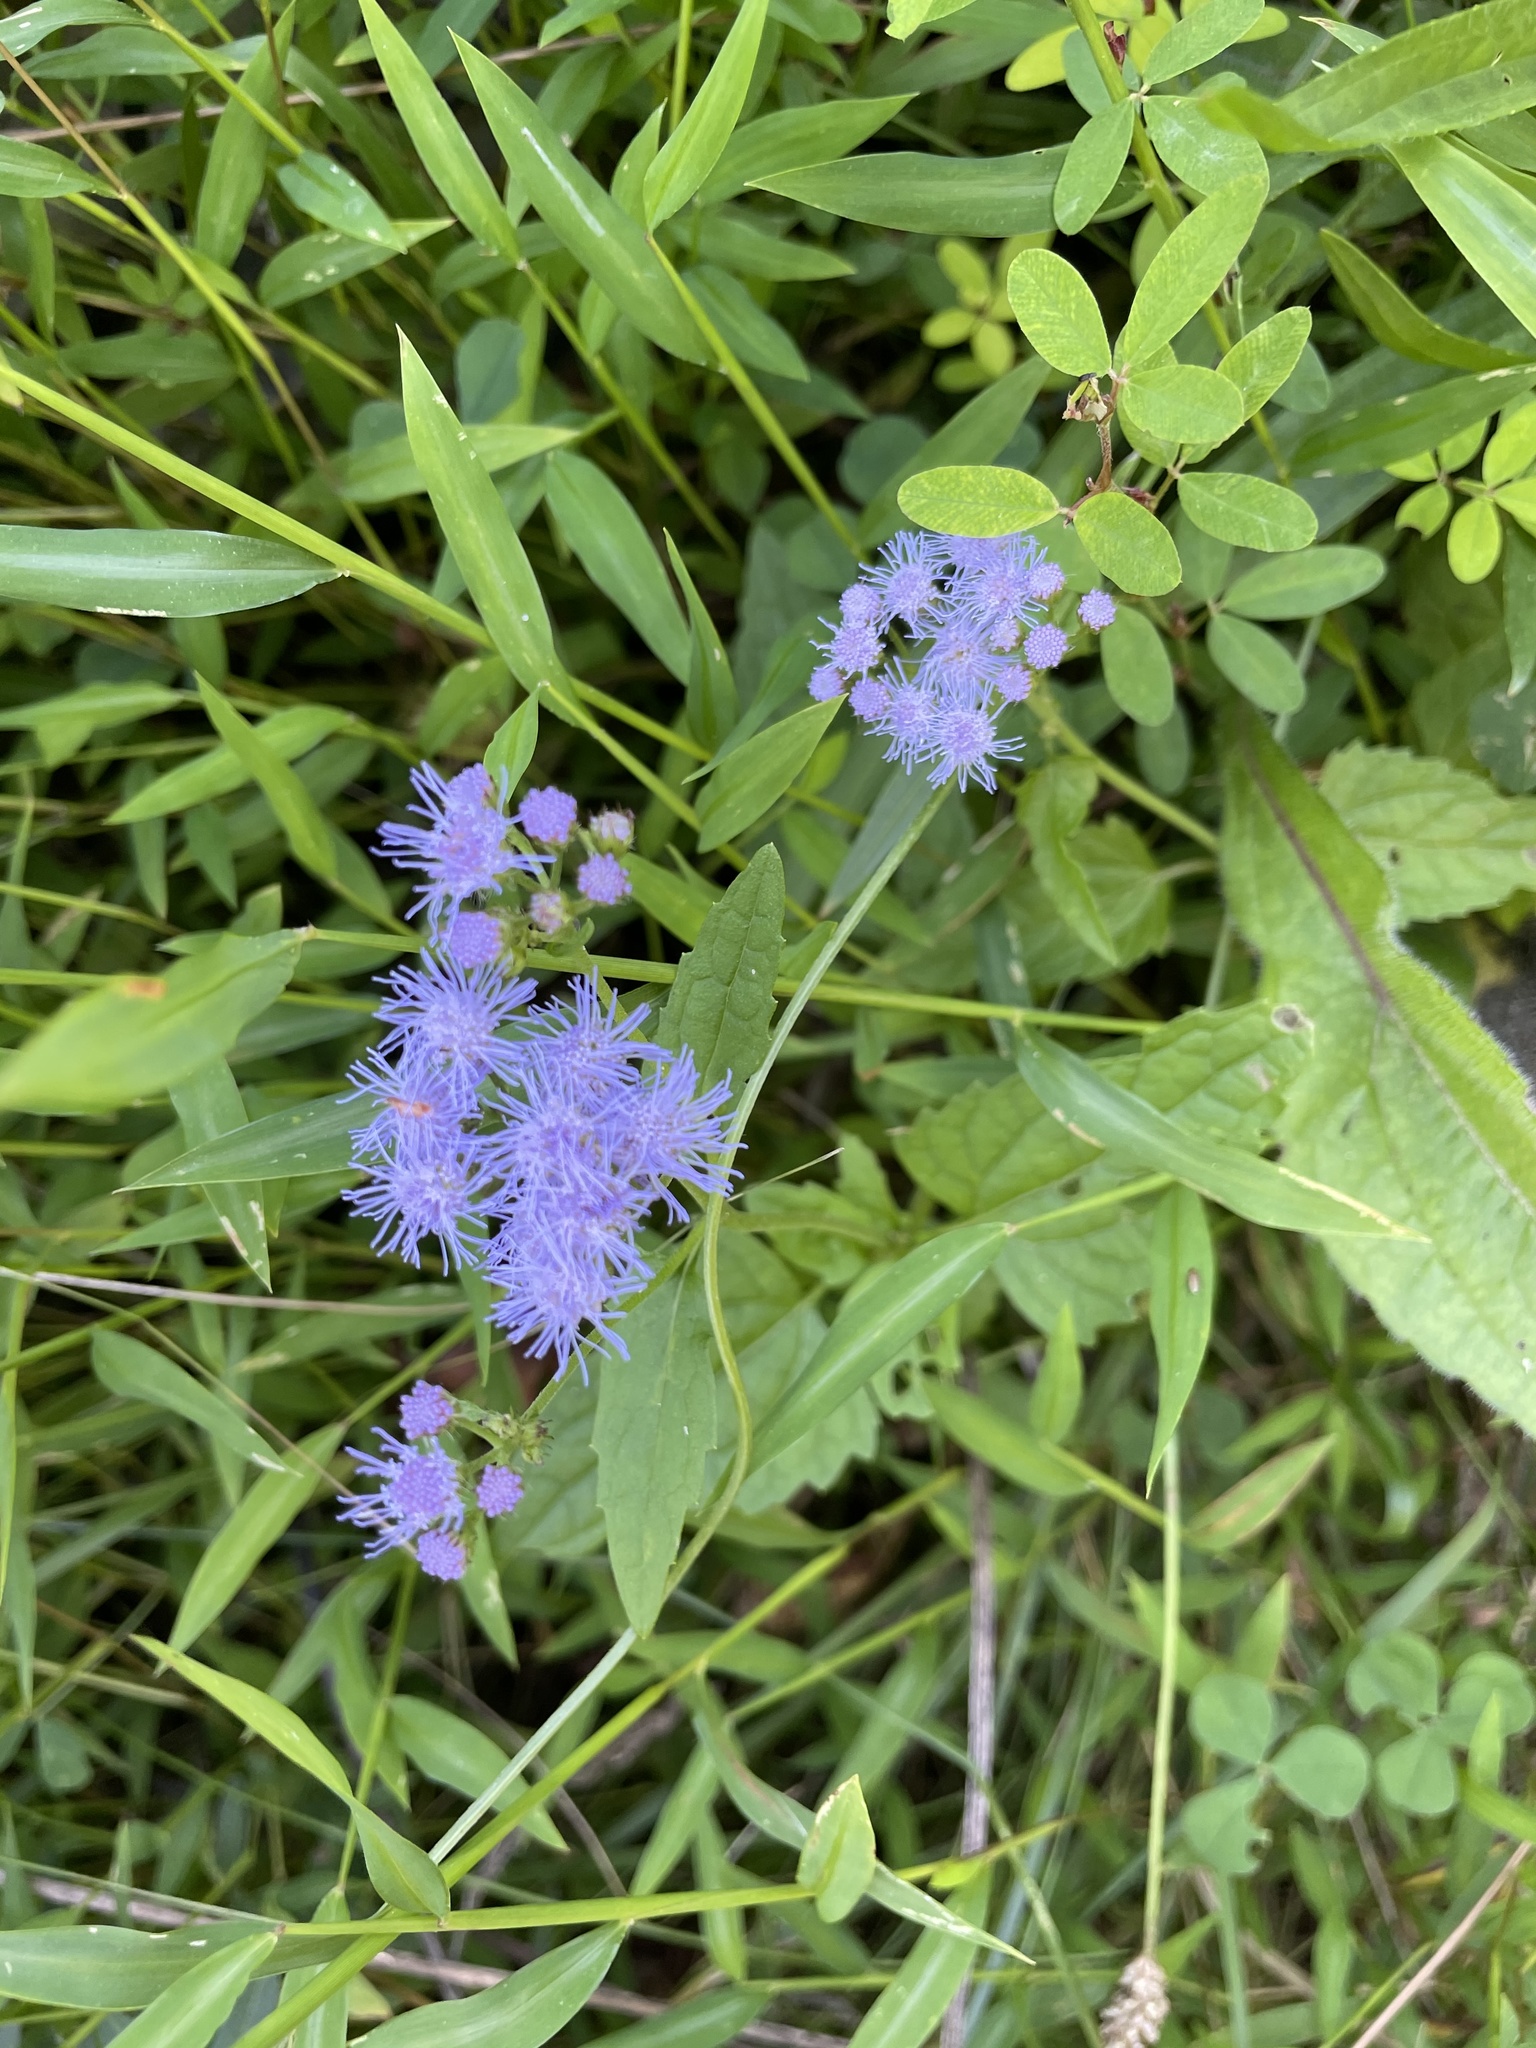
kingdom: Plantae
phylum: Tracheophyta
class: Magnoliopsida
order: Asterales
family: Asteraceae
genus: Conoclinium
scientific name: Conoclinium coelestinum
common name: Blue mistflower
